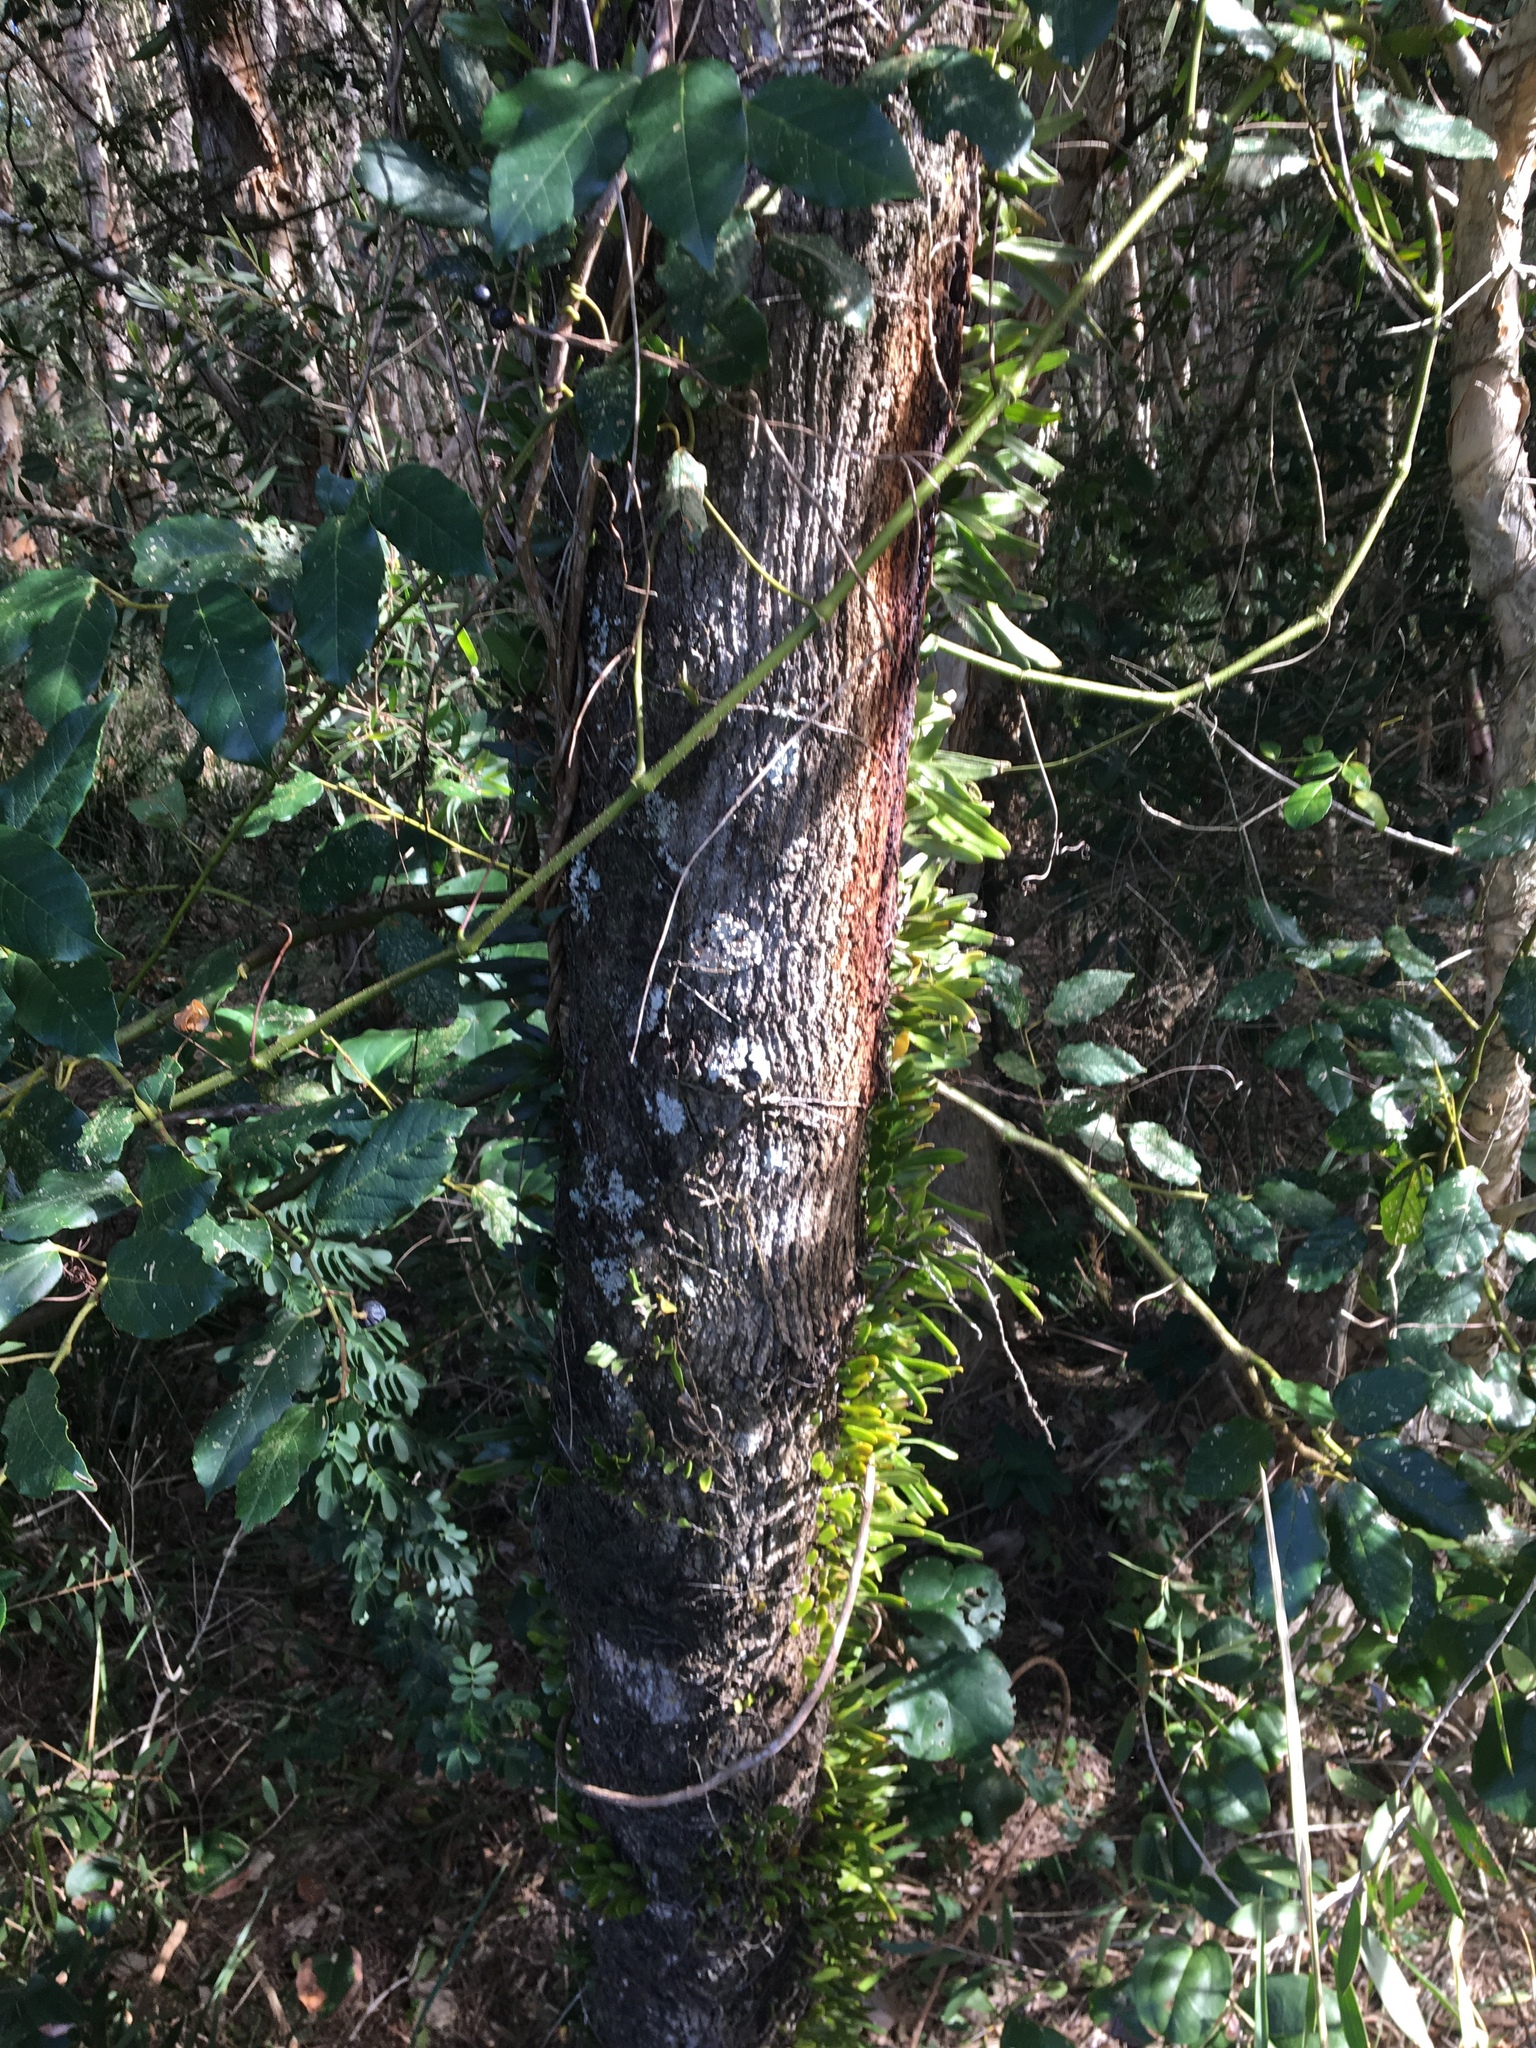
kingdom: Plantae
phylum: Tracheophyta
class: Polypodiopsida
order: Polypodiales
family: Polypodiaceae
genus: Pyrrosia
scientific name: Pyrrosia confluens
